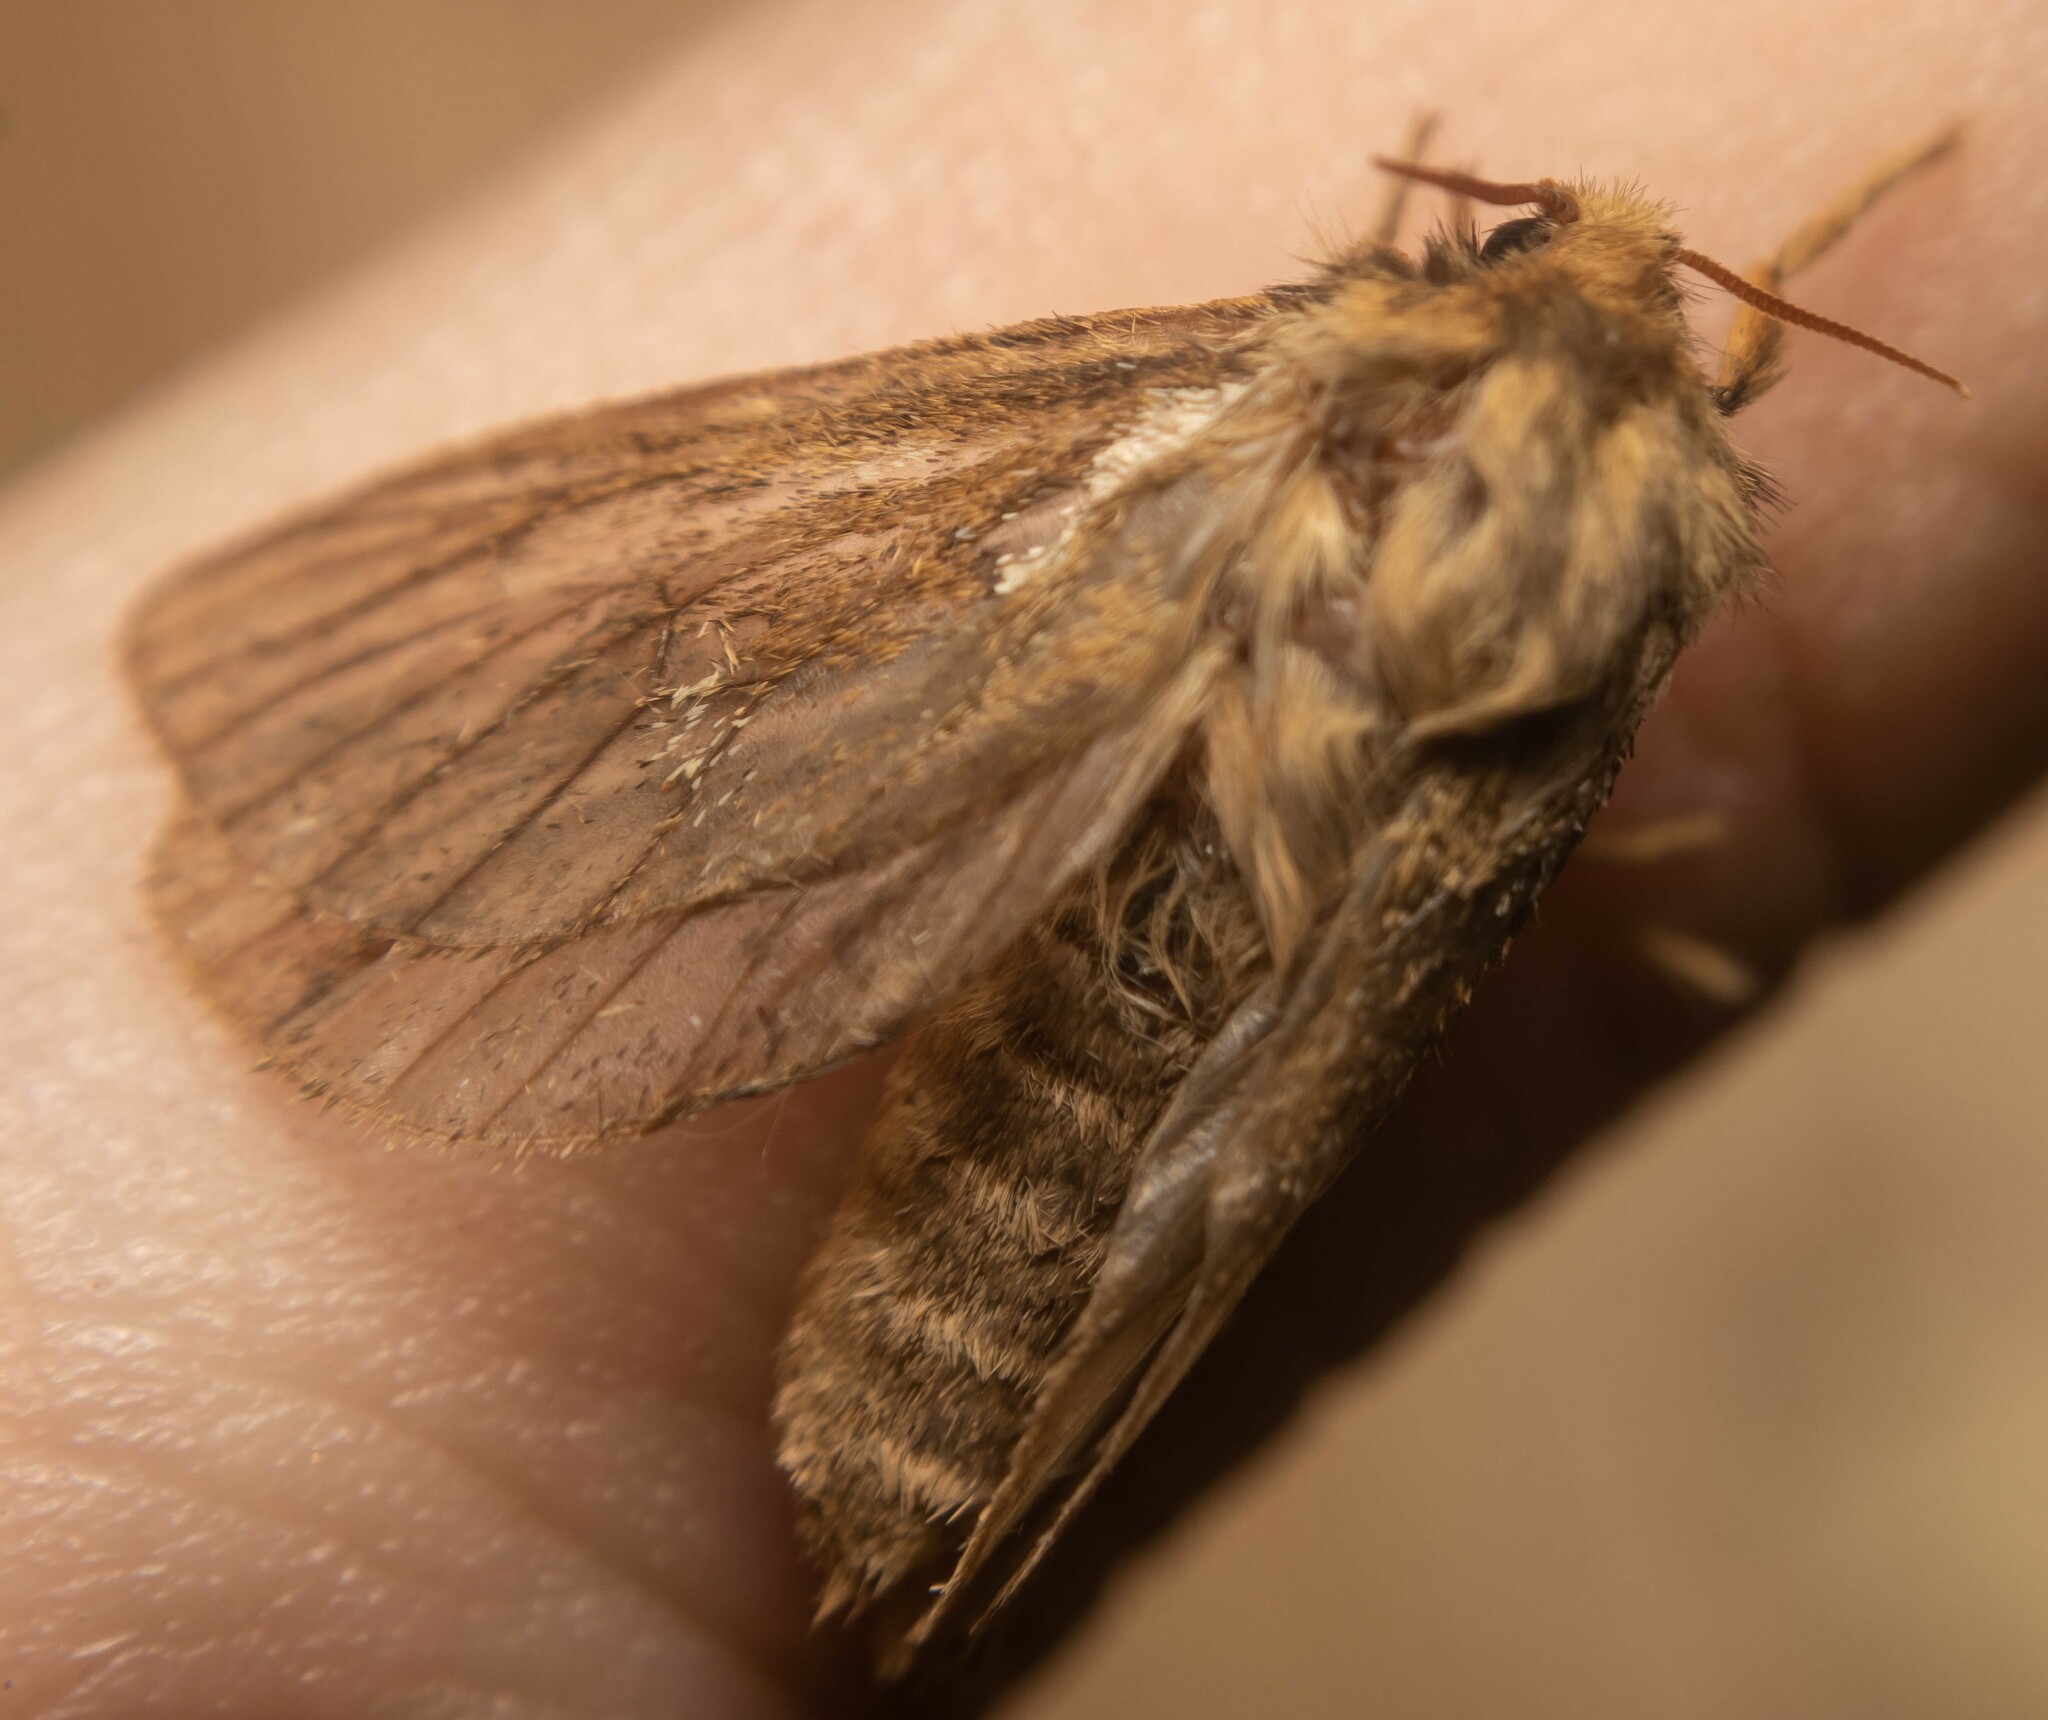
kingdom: Animalia
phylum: Arthropoda
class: Insecta
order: Lepidoptera
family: Hepialidae
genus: Korscheltellus
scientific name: Korscheltellus lupulina
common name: Common swift
